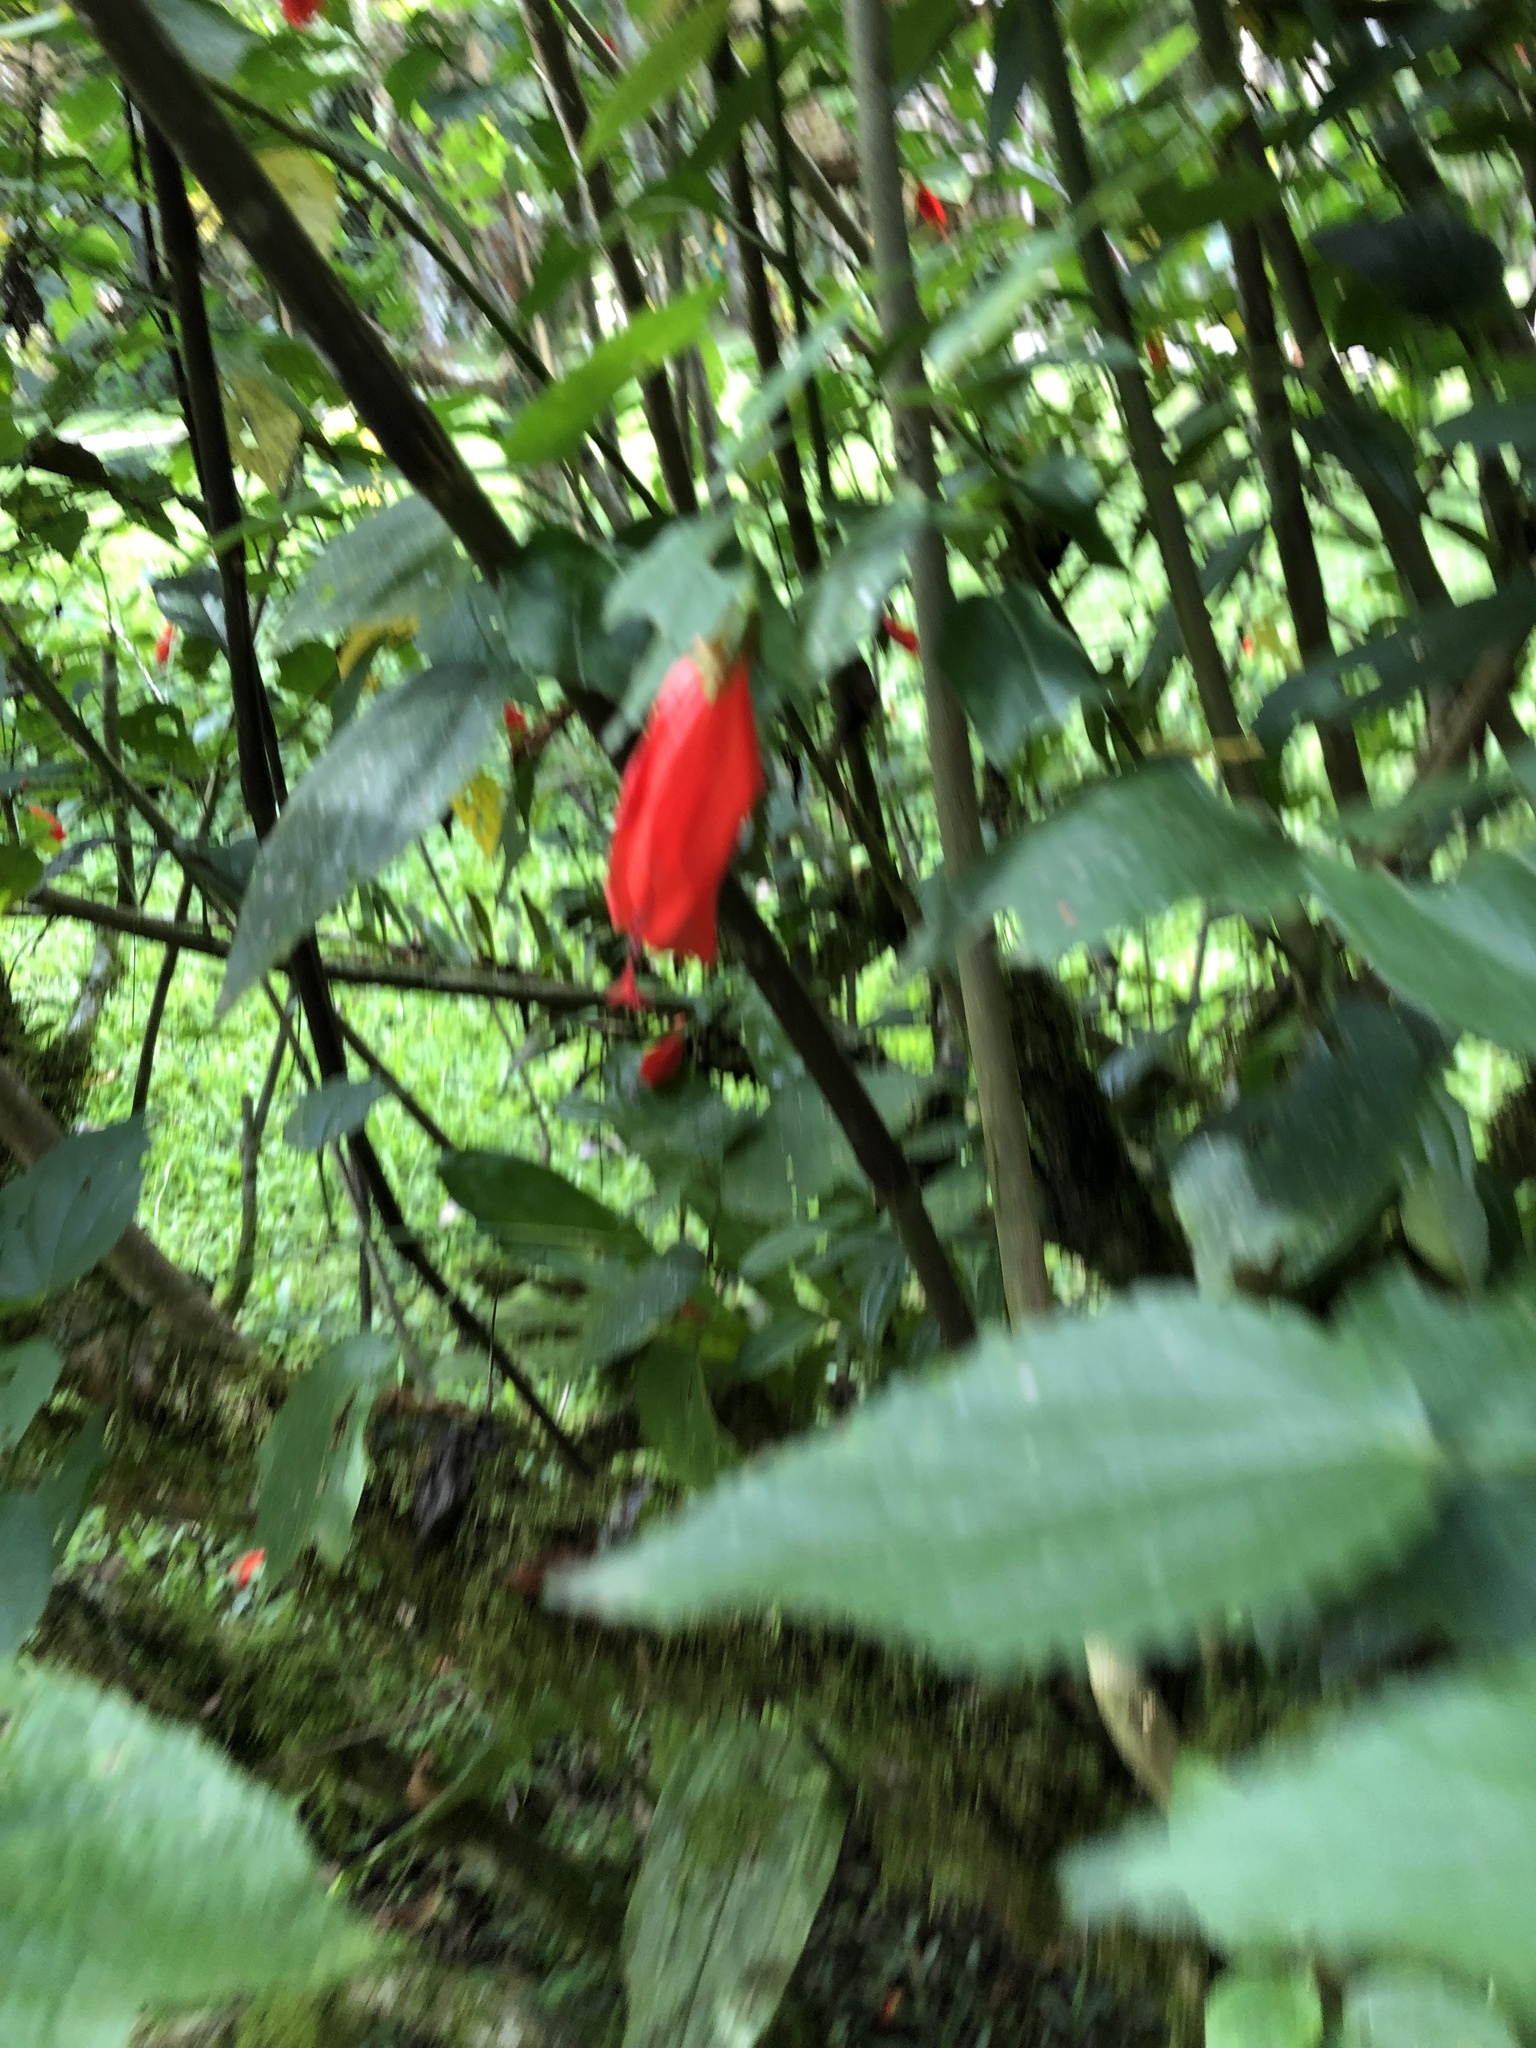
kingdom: Plantae
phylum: Tracheophyta
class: Magnoliopsida
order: Malvales
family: Malvaceae
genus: Malvaviscus
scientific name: Malvaviscus penduliflorus
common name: Mazapan
